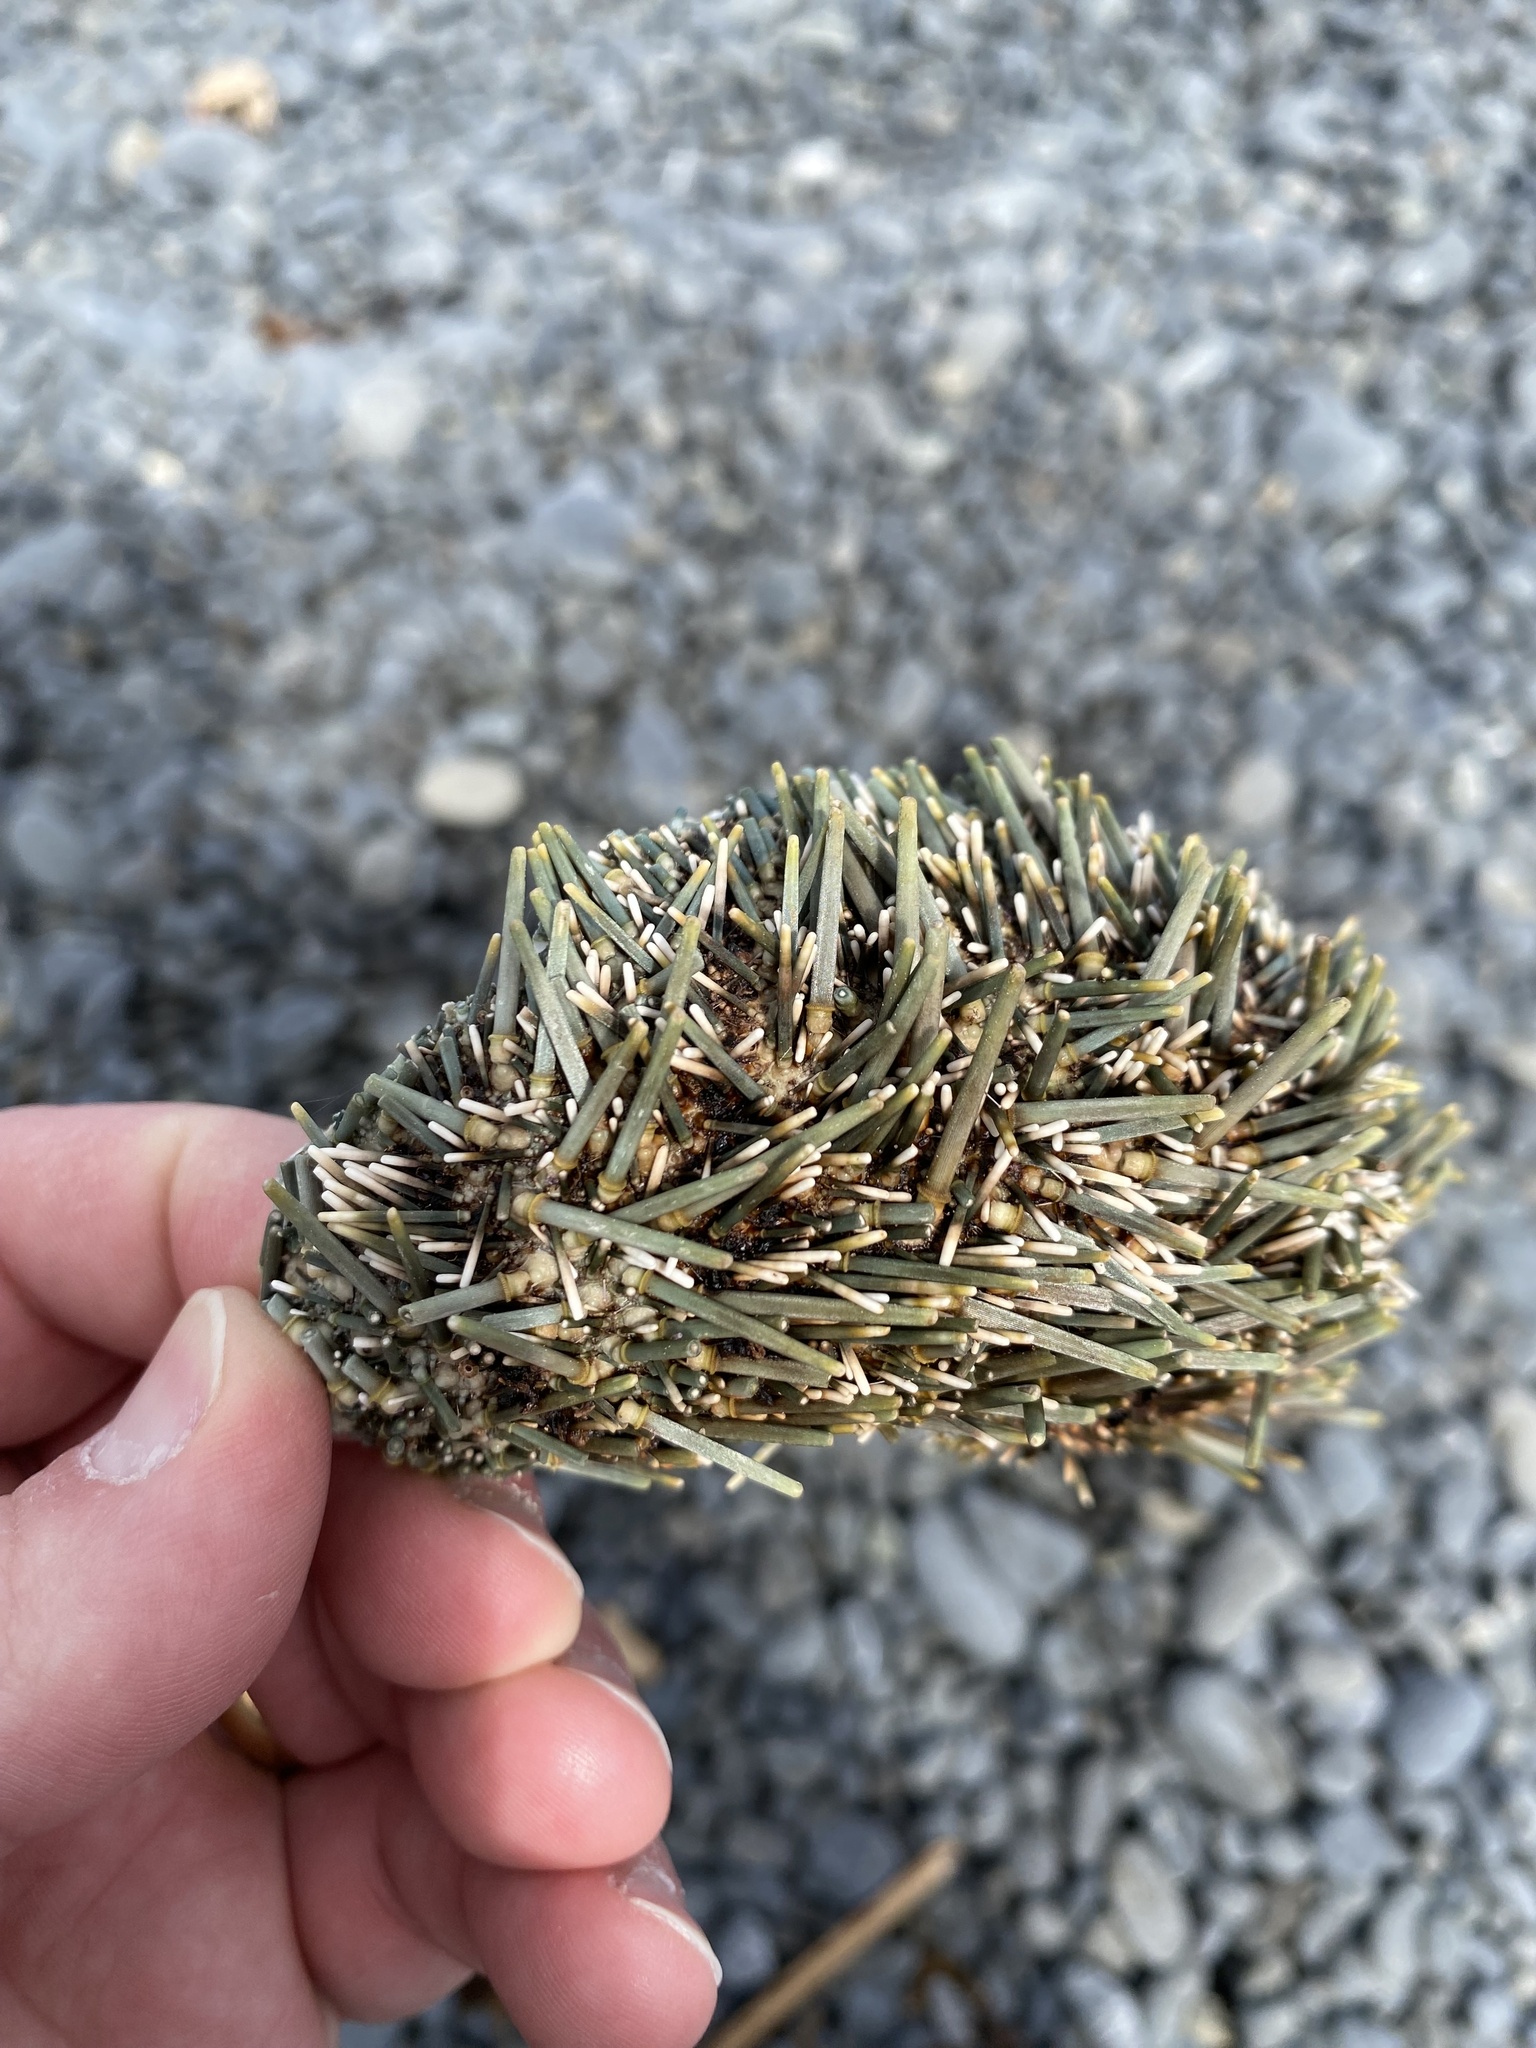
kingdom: Animalia
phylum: Echinodermata
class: Echinoidea
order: Camarodonta
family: Echinometridae
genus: Evechinus
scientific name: Evechinus chloroticus
